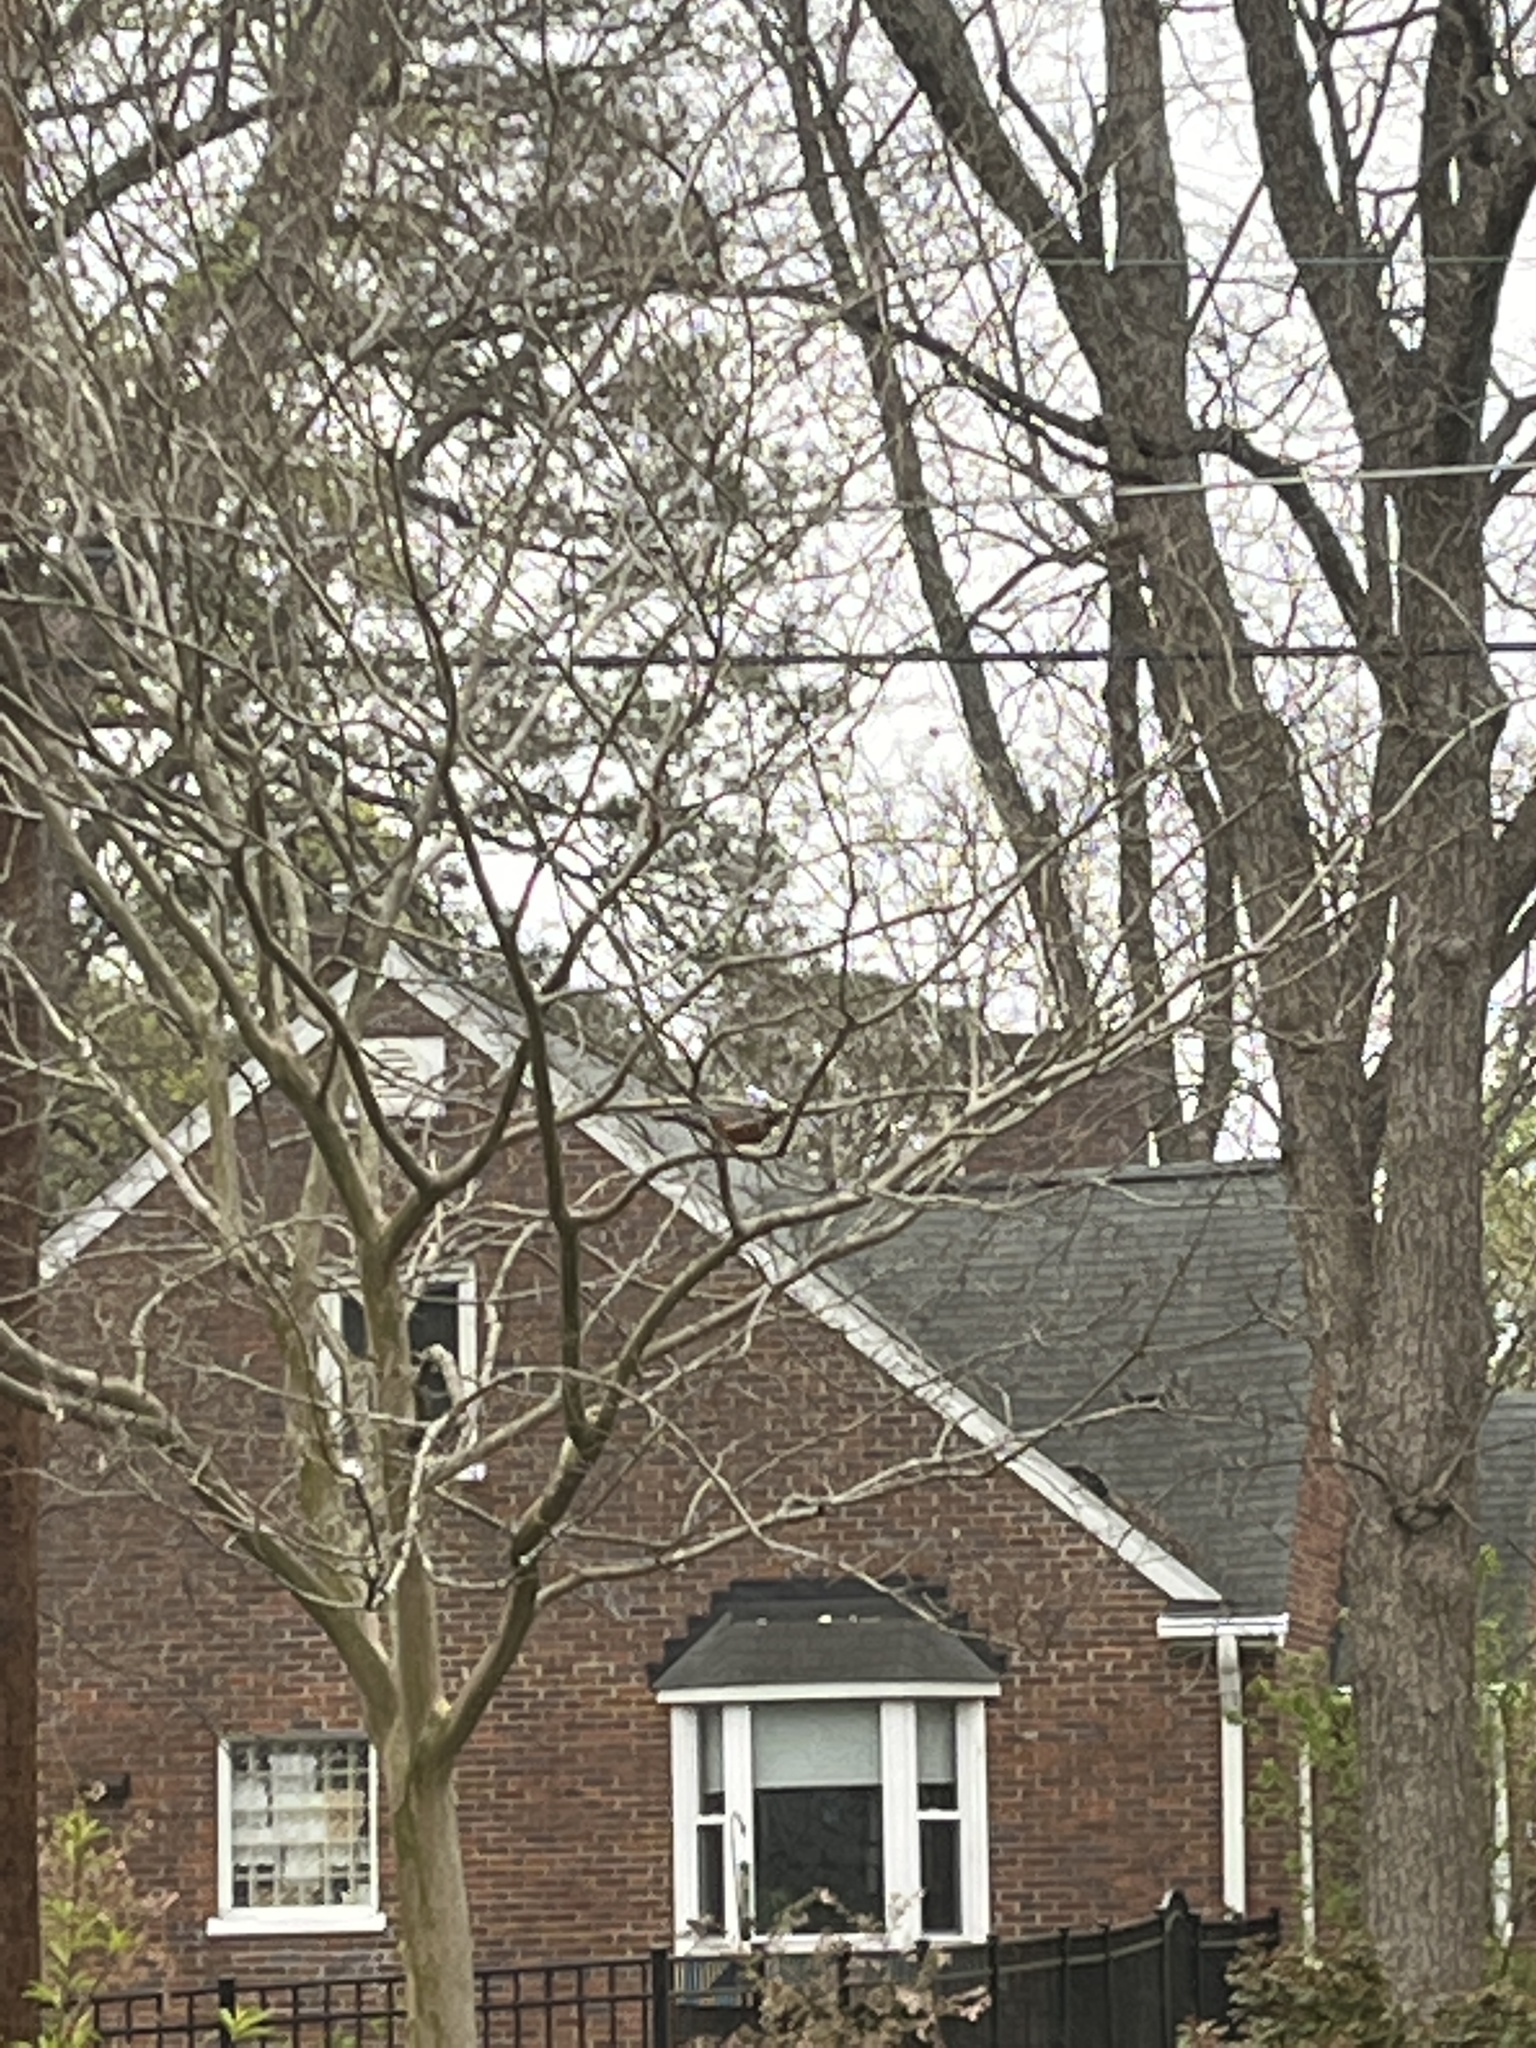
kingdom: Animalia
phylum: Chordata
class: Aves
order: Passeriformes
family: Turdidae
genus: Turdus
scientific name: Turdus migratorius
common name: American robin
